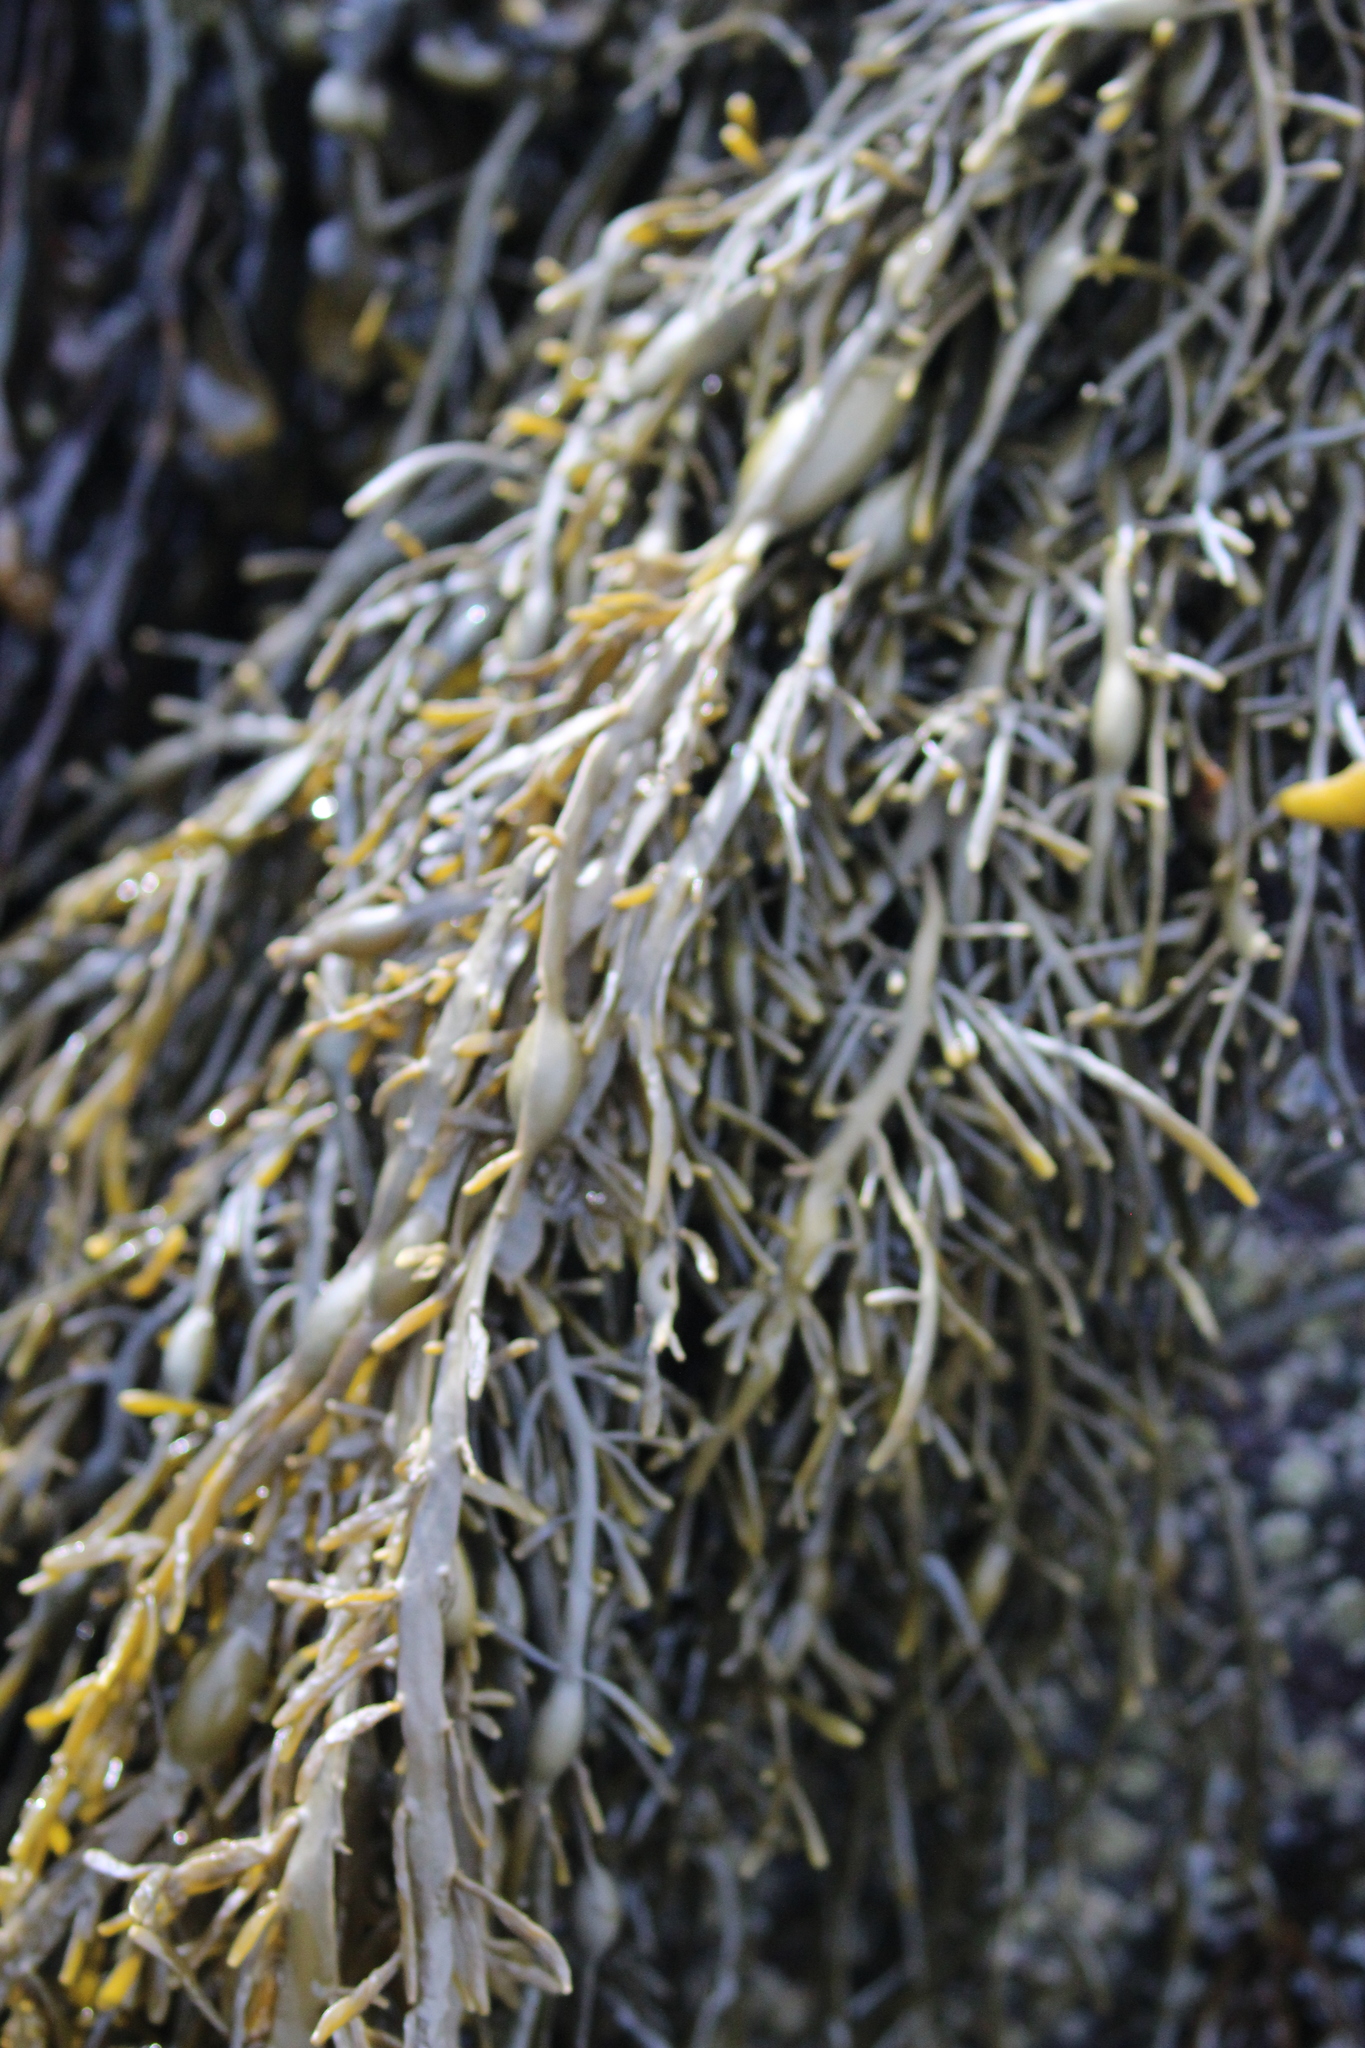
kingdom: Chromista
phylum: Ochrophyta
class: Phaeophyceae
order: Fucales
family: Fucaceae
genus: Ascophyllum
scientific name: Ascophyllum nodosum
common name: Knotted wrack
